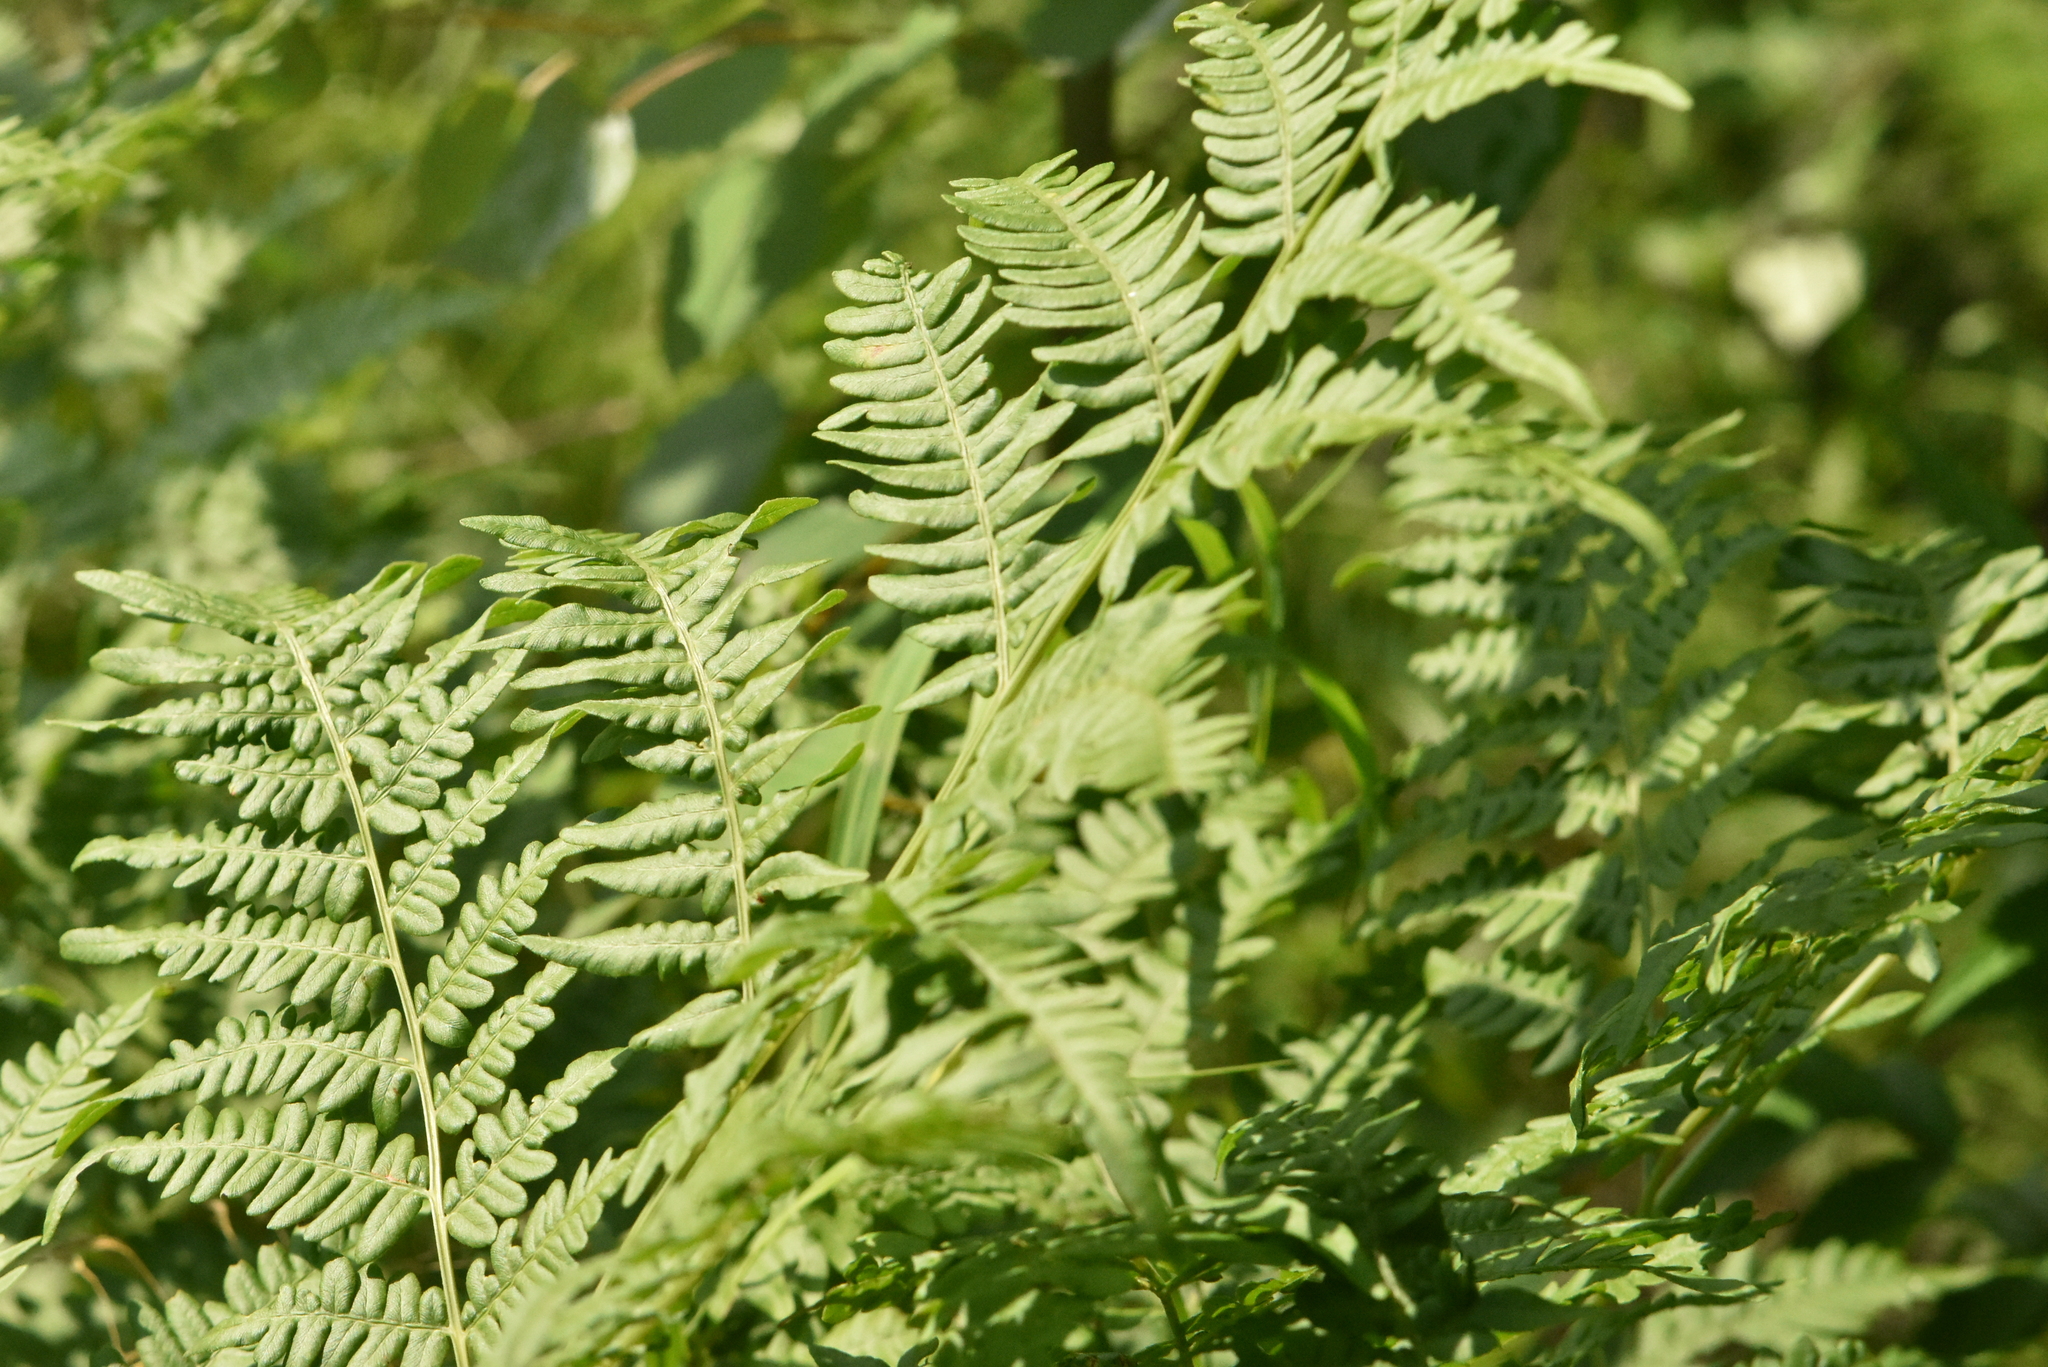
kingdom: Plantae
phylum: Tracheophyta
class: Polypodiopsida
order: Polypodiales
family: Dennstaedtiaceae
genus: Pteridium
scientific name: Pteridium aquilinum
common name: Bracken
